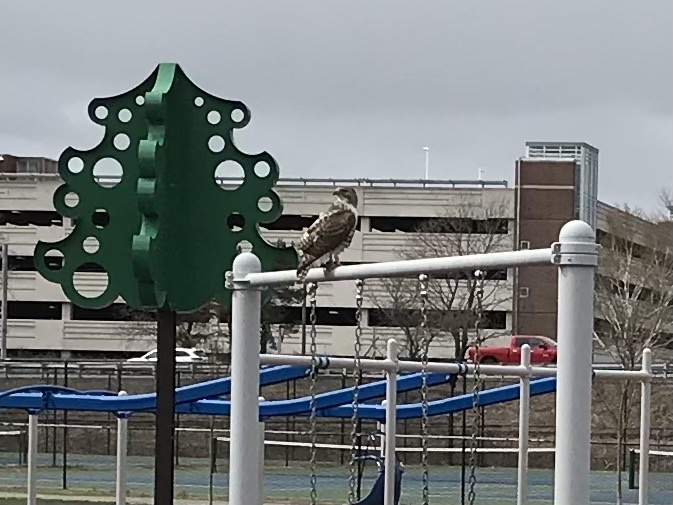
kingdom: Animalia
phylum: Chordata
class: Aves
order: Accipitriformes
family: Accipitridae
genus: Buteo
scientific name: Buteo jamaicensis
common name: Red-tailed hawk
